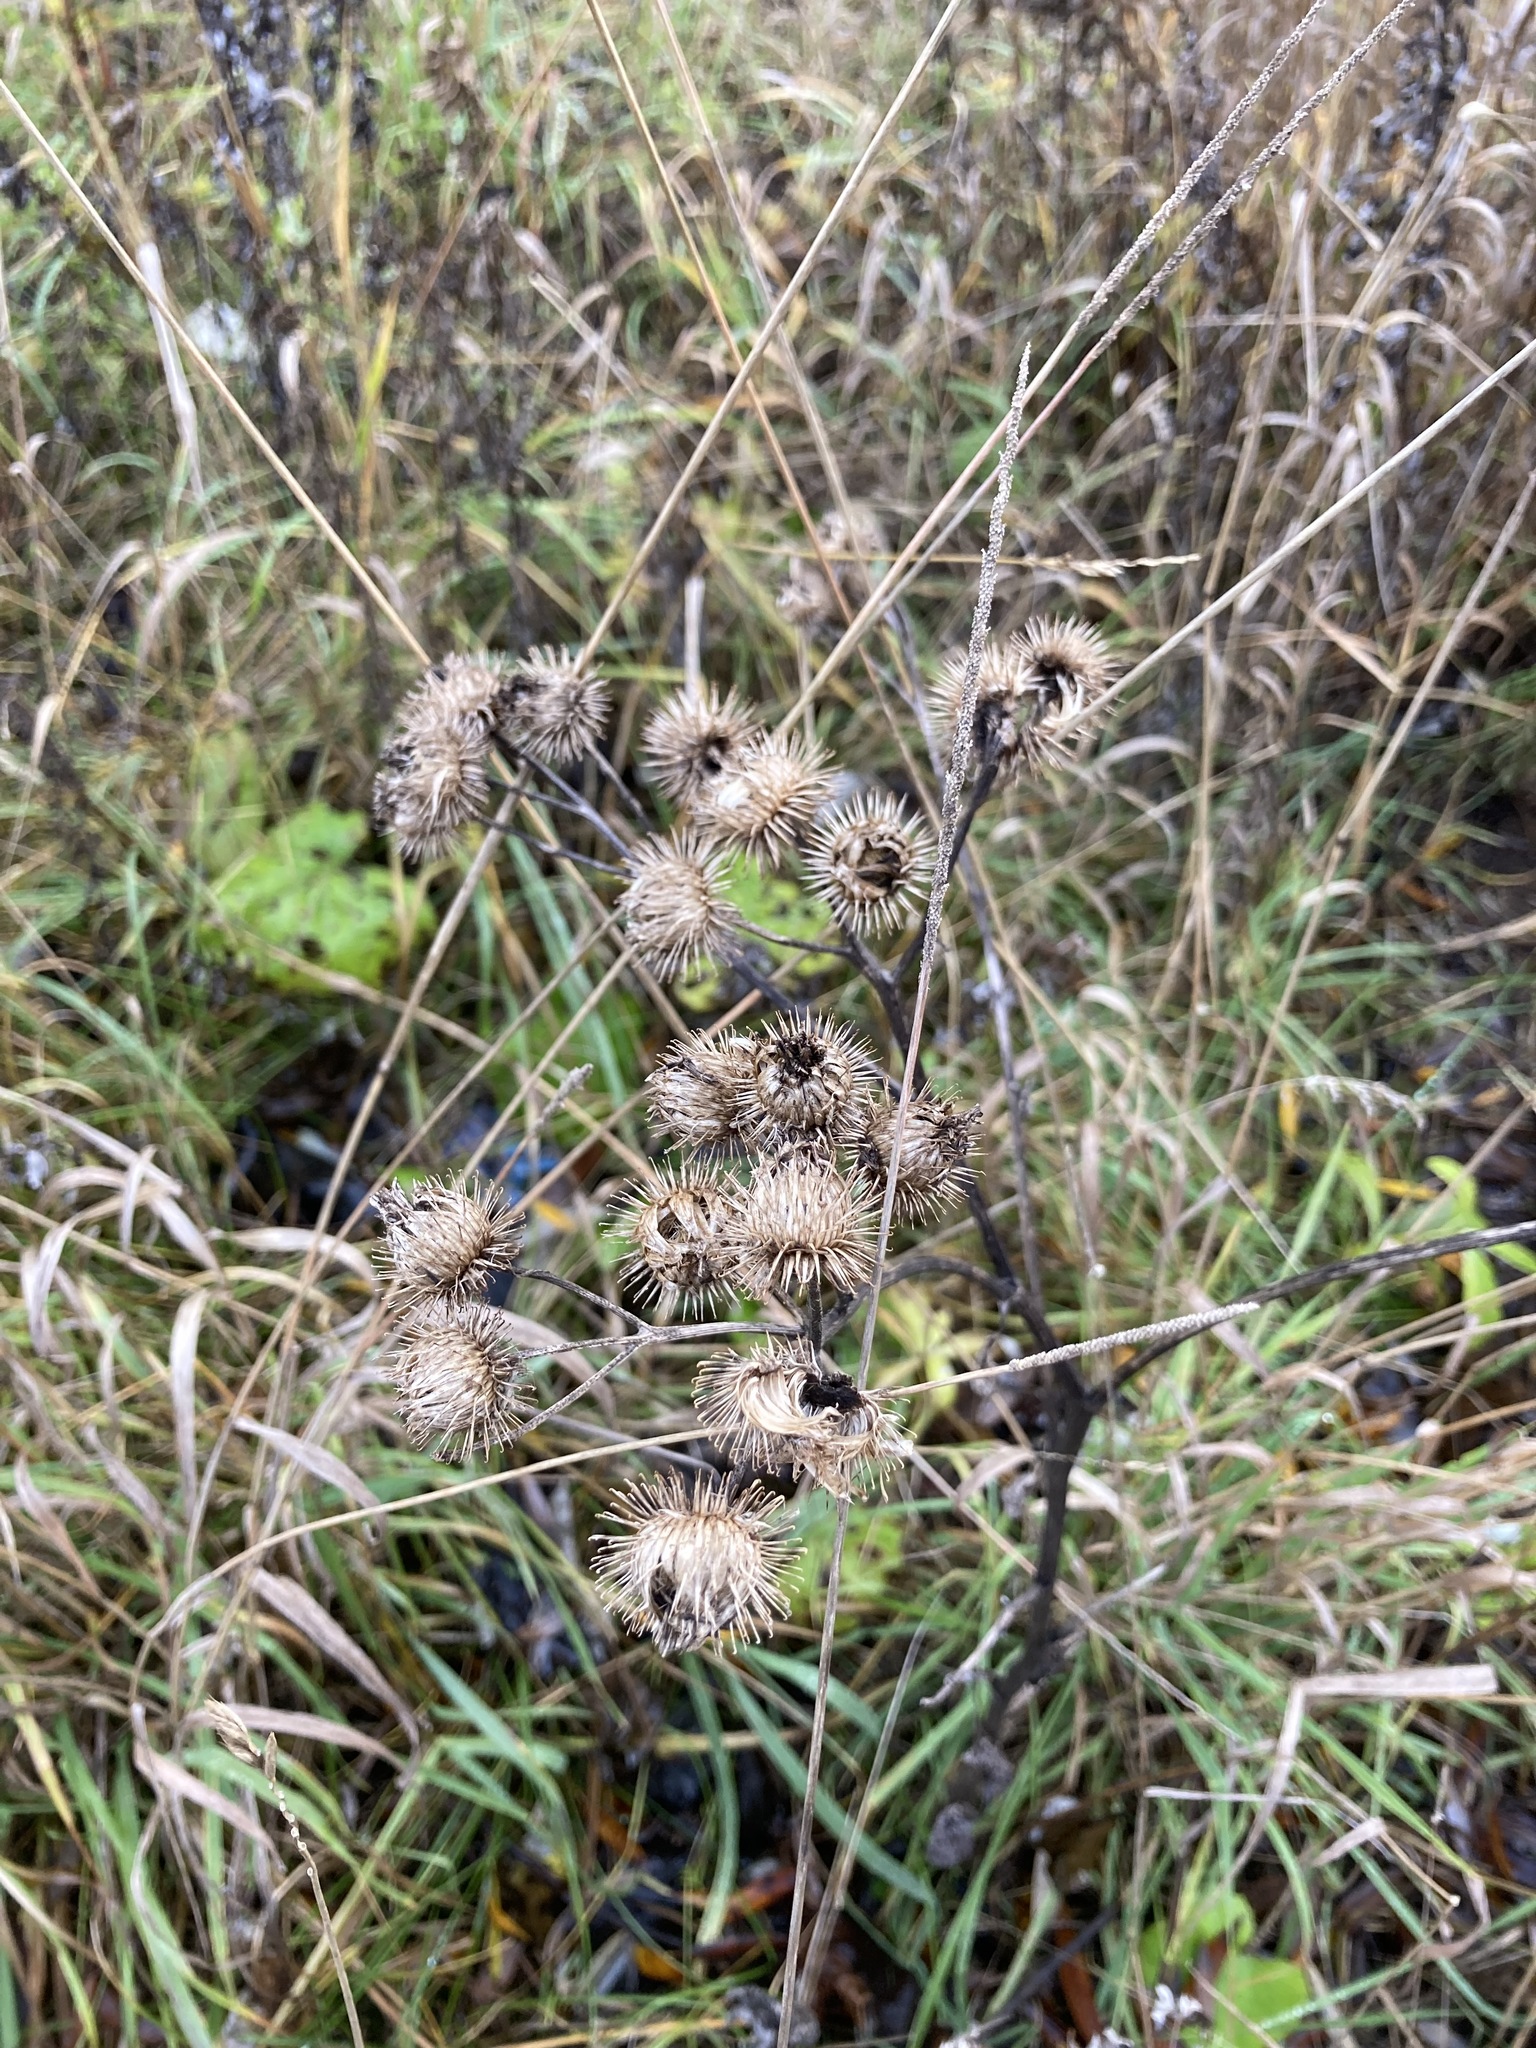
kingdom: Plantae
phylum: Tracheophyta
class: Magnoliopsida
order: Asterales
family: Asteraceae
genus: Arctium
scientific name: Arctium tomentosum
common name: Woolly burdock
